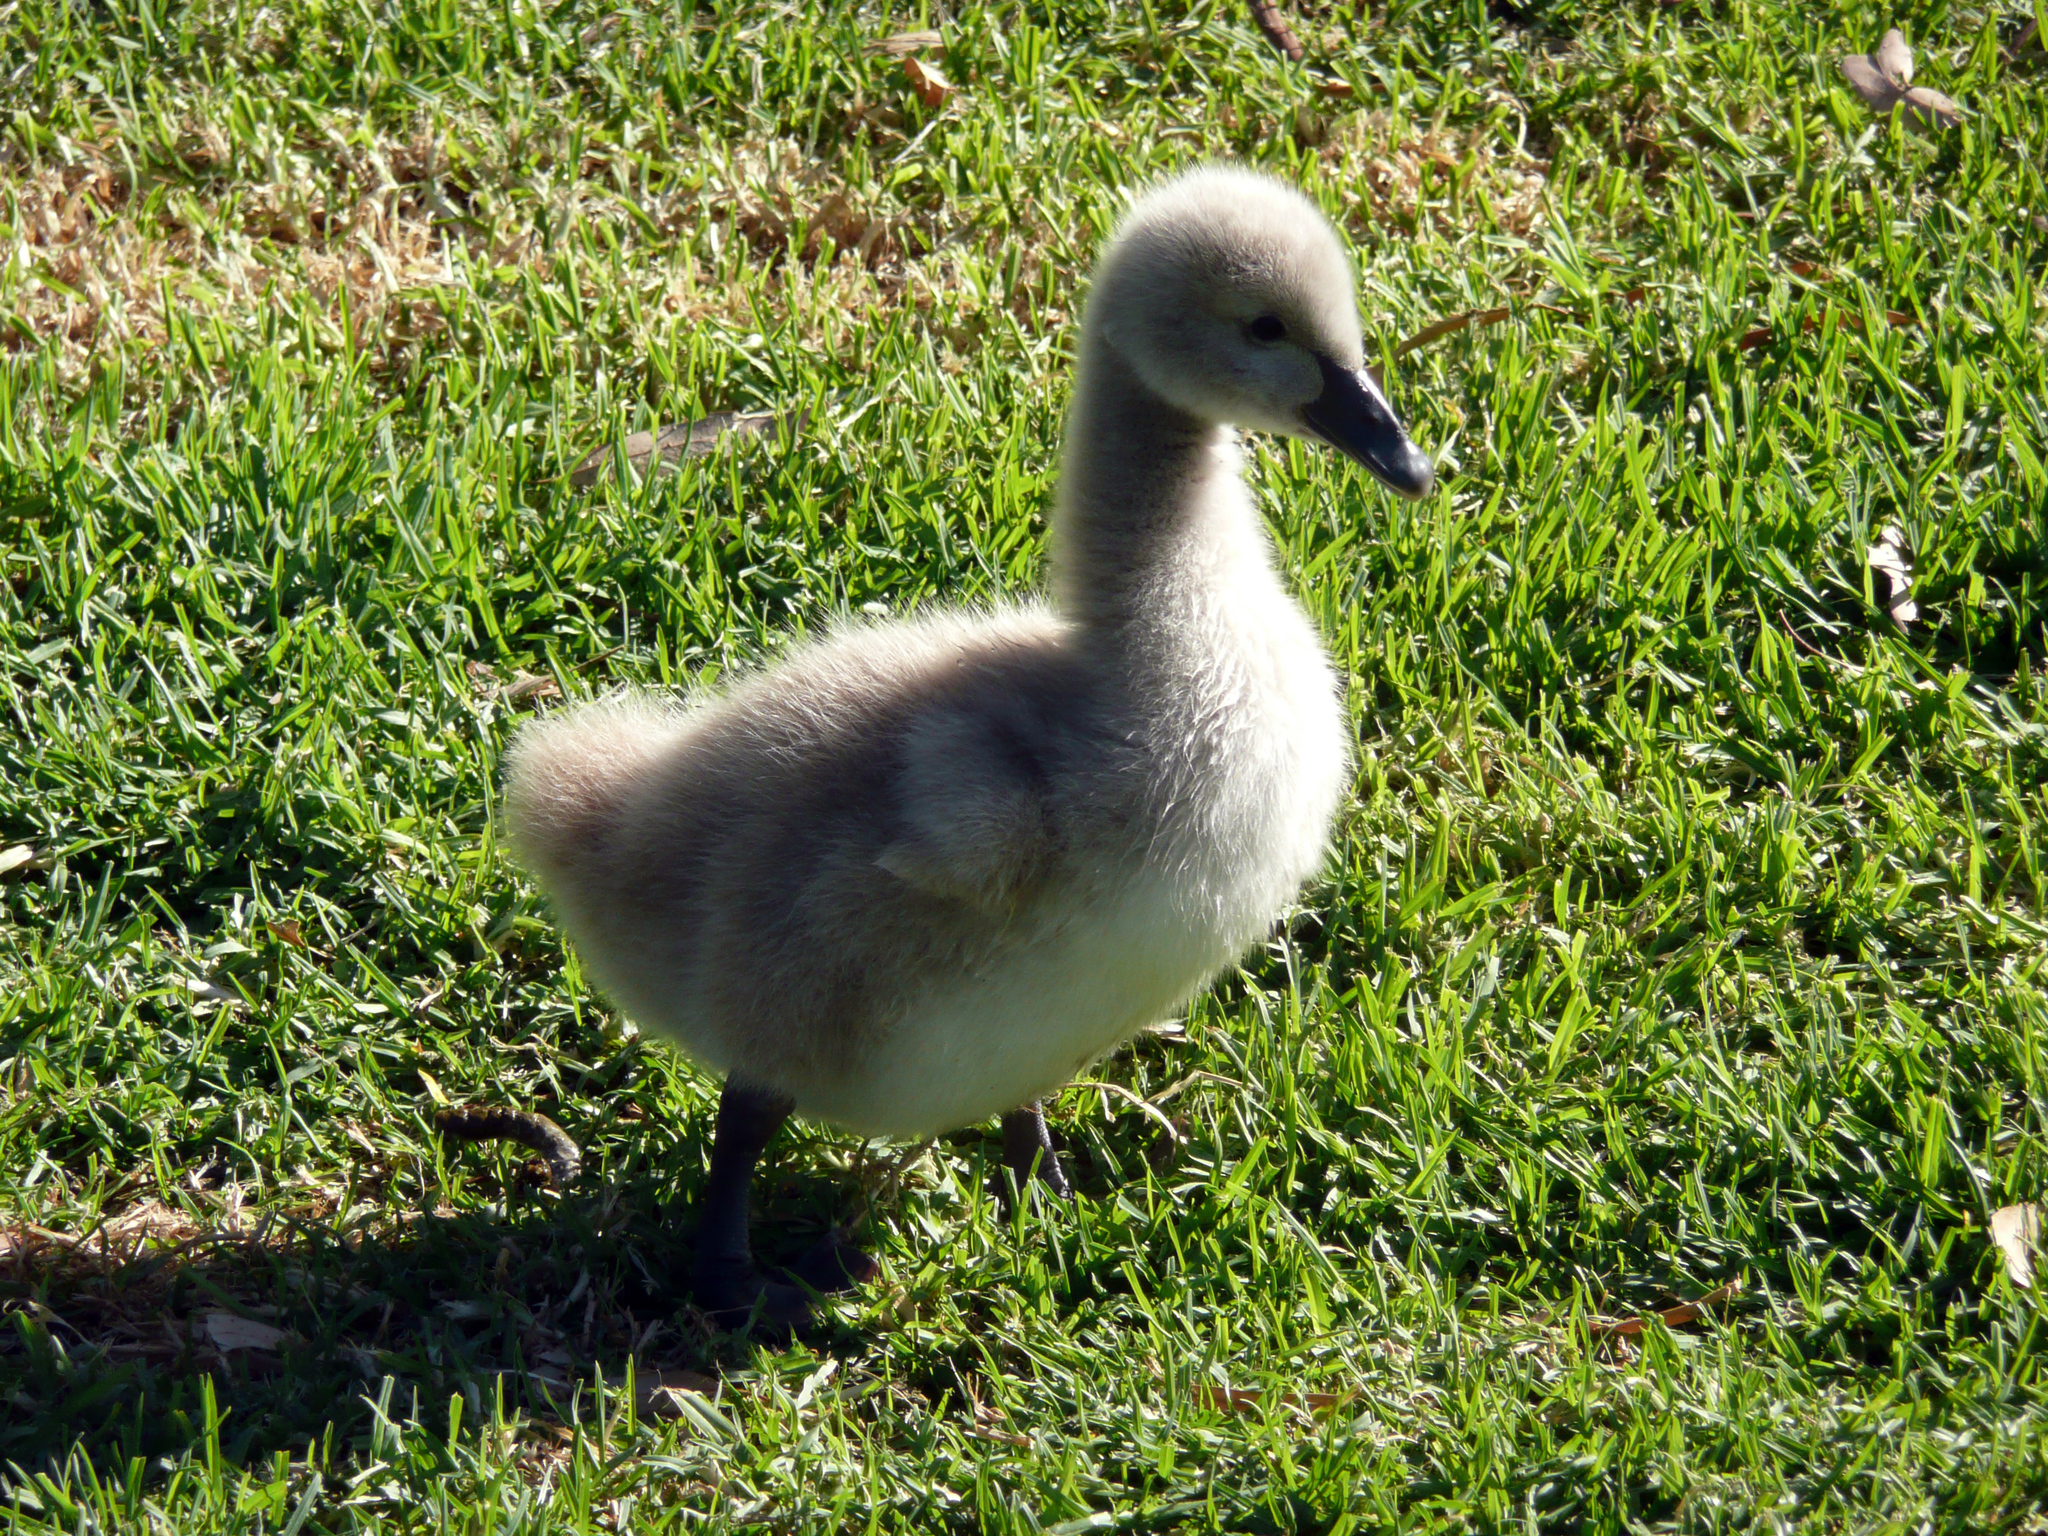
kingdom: Animalia
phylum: Chordata
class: Aves
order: Anseriformes
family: Anatidae
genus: Cygnus
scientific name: Cygnus atratus
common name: Black swan
